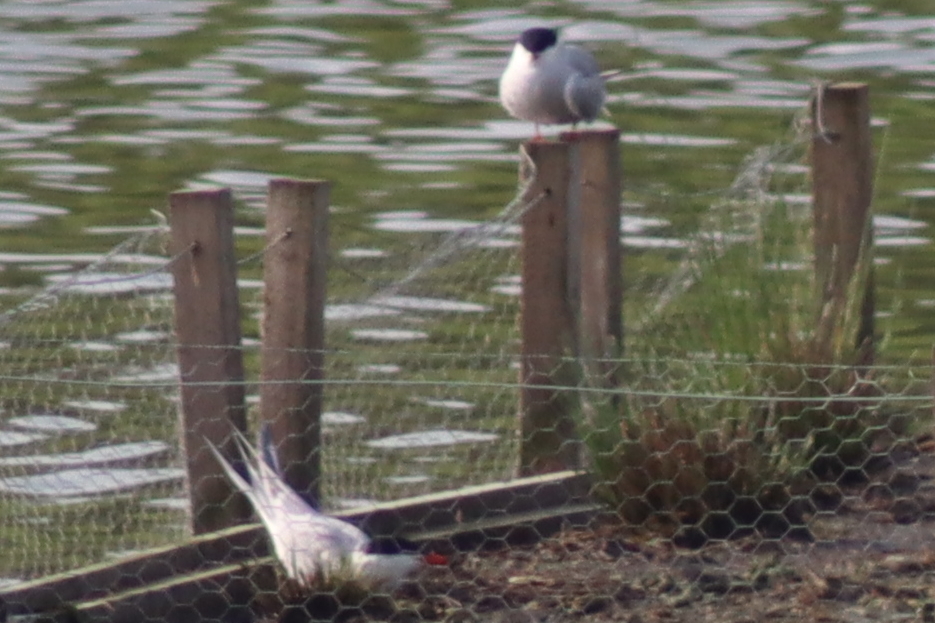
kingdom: Animalia
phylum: Chordata
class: Aves
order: Charadriiformes
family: Laridae
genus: Sterna
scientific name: Sterna hirundo
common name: Common tern
